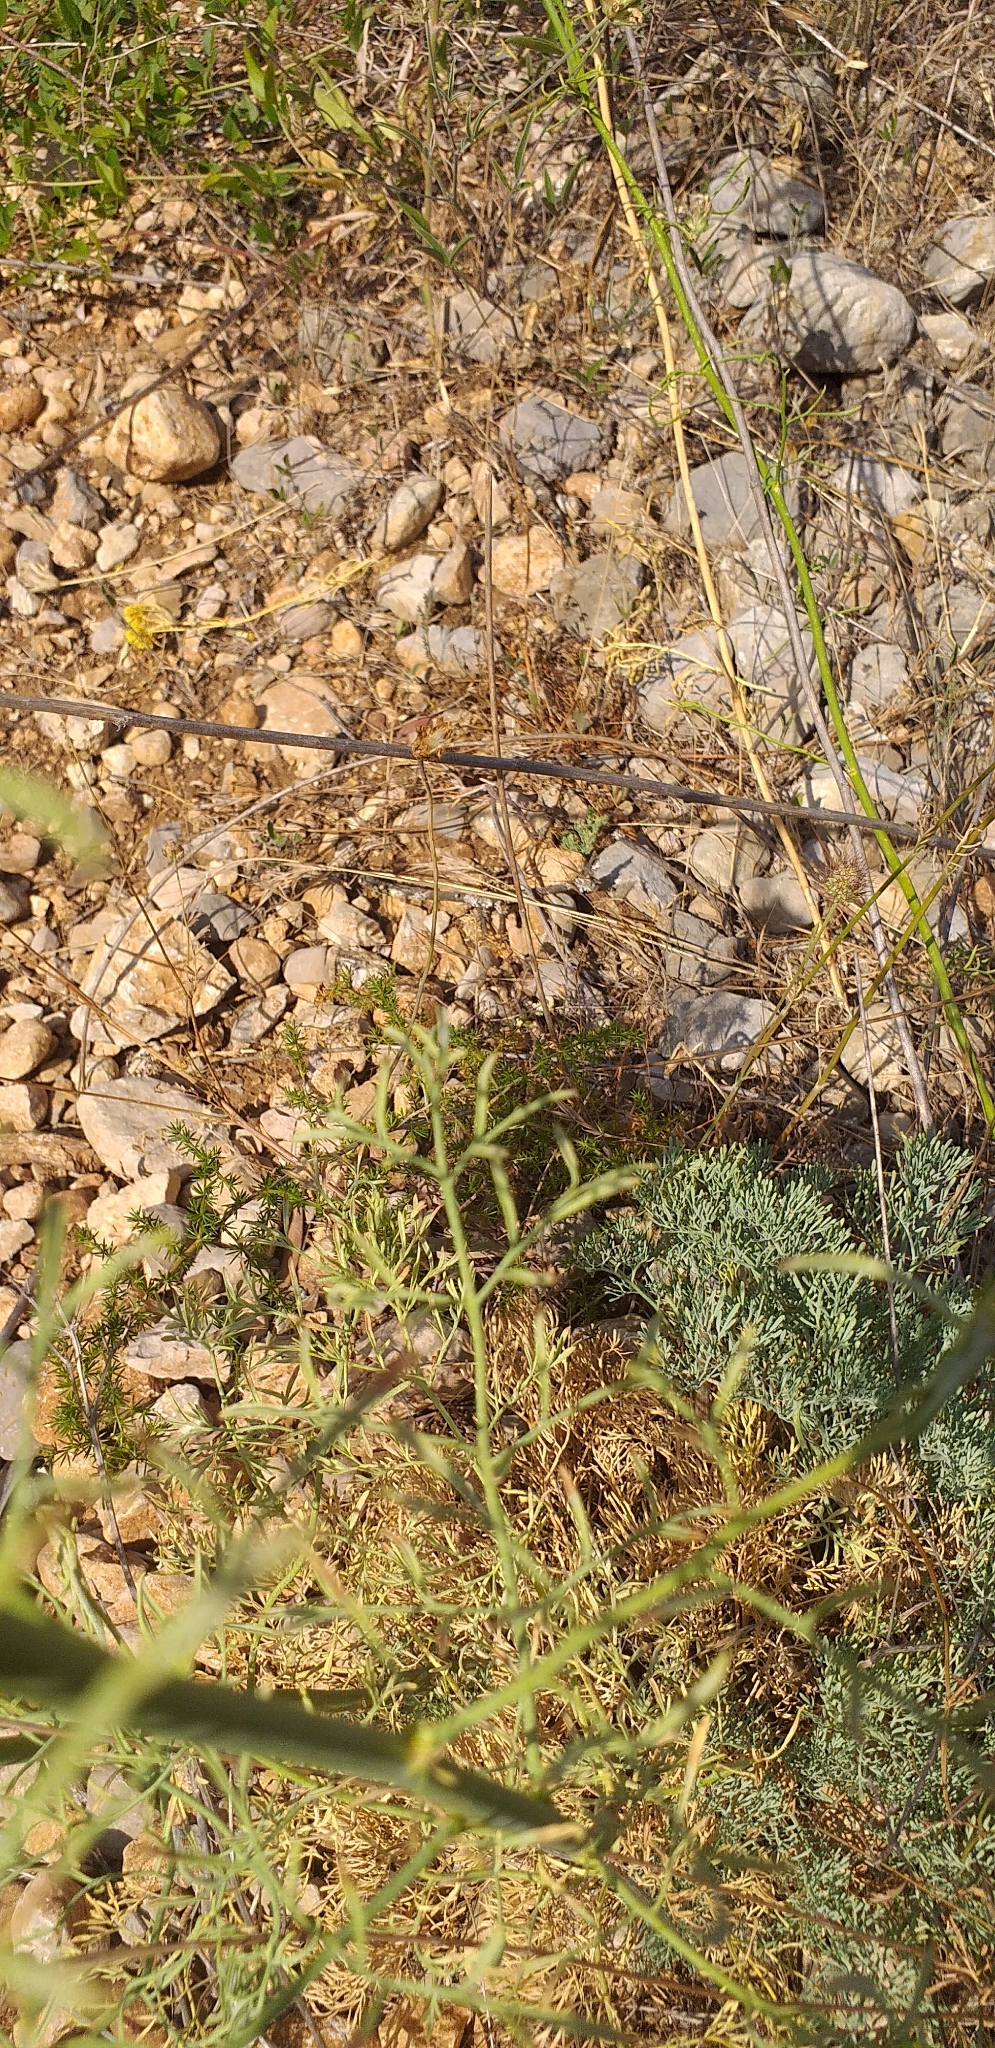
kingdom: Plantae
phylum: Tracheophyta
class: Magnoliopsida
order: Sapindales
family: Rutaceae
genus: Ruta
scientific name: Ruta montana
